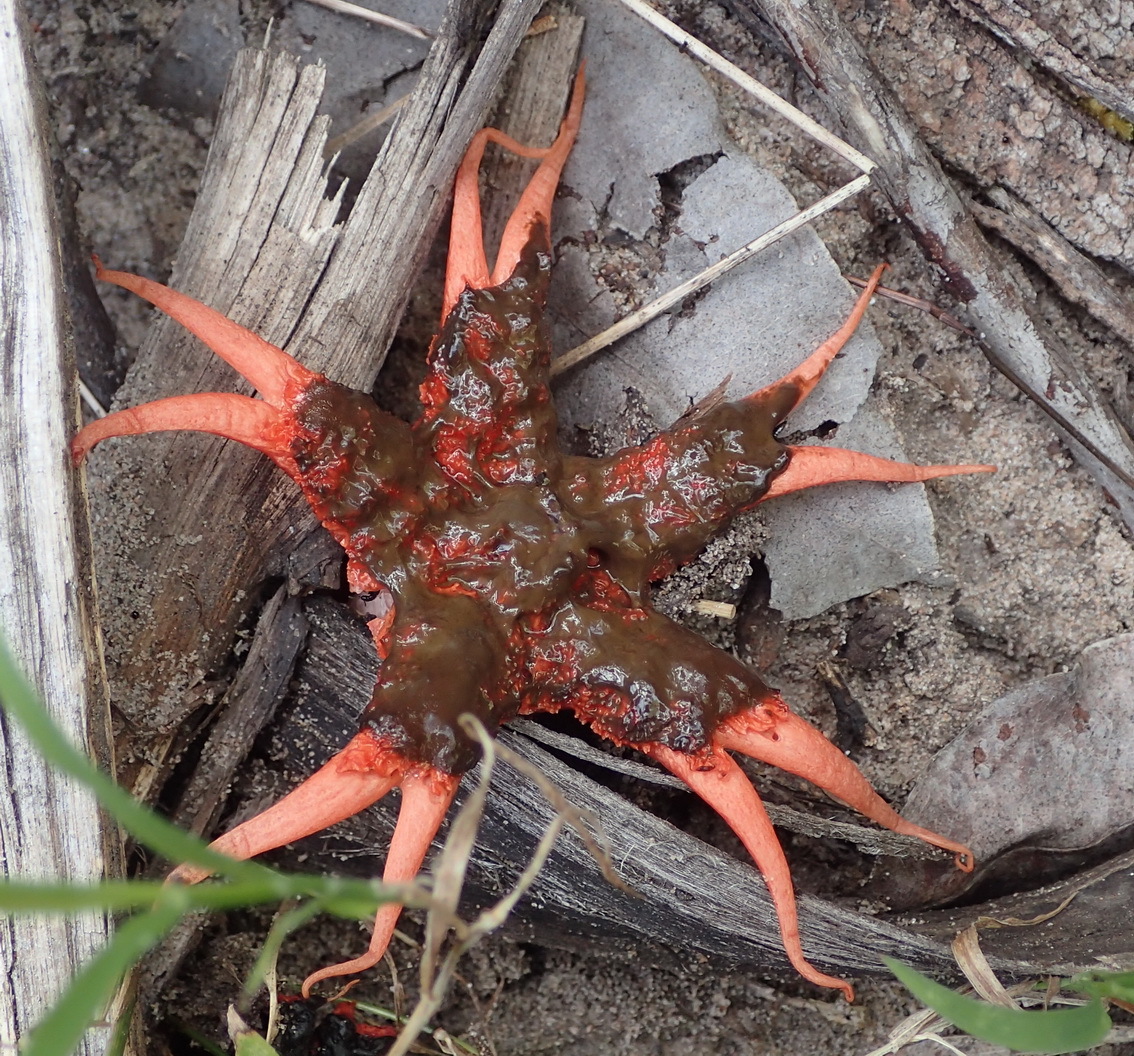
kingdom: Fungi
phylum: Basidiomycota
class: Agaricomycetes
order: Phallales
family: Phallaceae
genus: Aseroe
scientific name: Aseroe rubra
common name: Starfish fungus
